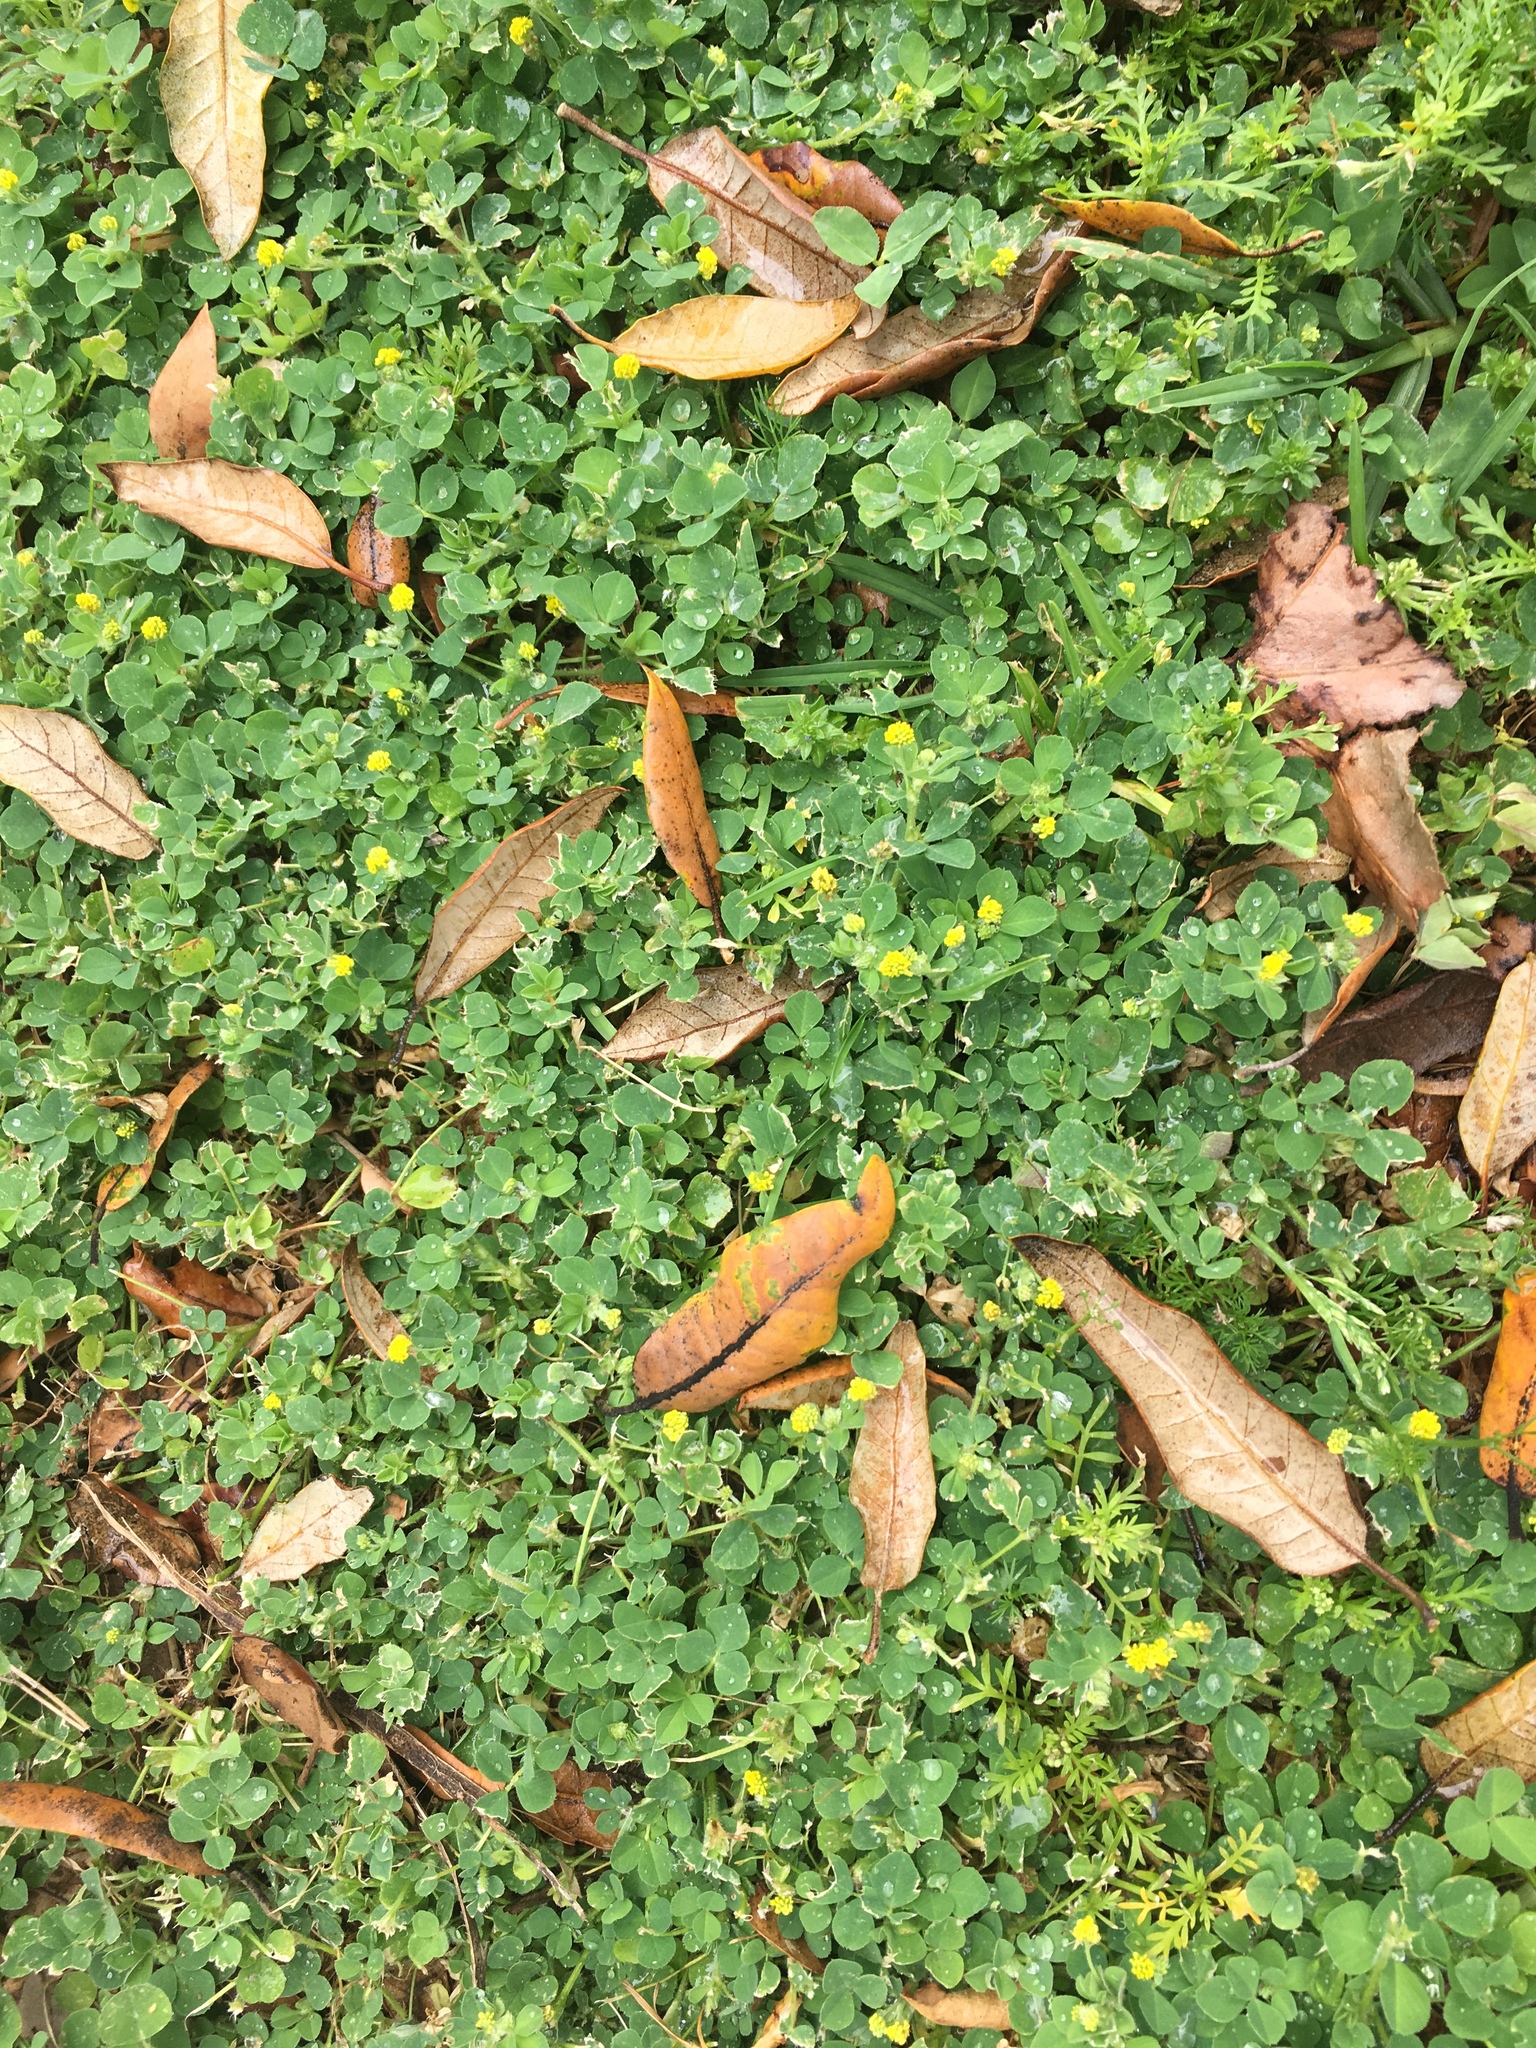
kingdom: Plantae
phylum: Tracheophyta
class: Magnoliopsida
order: Fabales
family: Fabaceae
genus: Medicago
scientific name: Medicago lupulina
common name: Black medick
